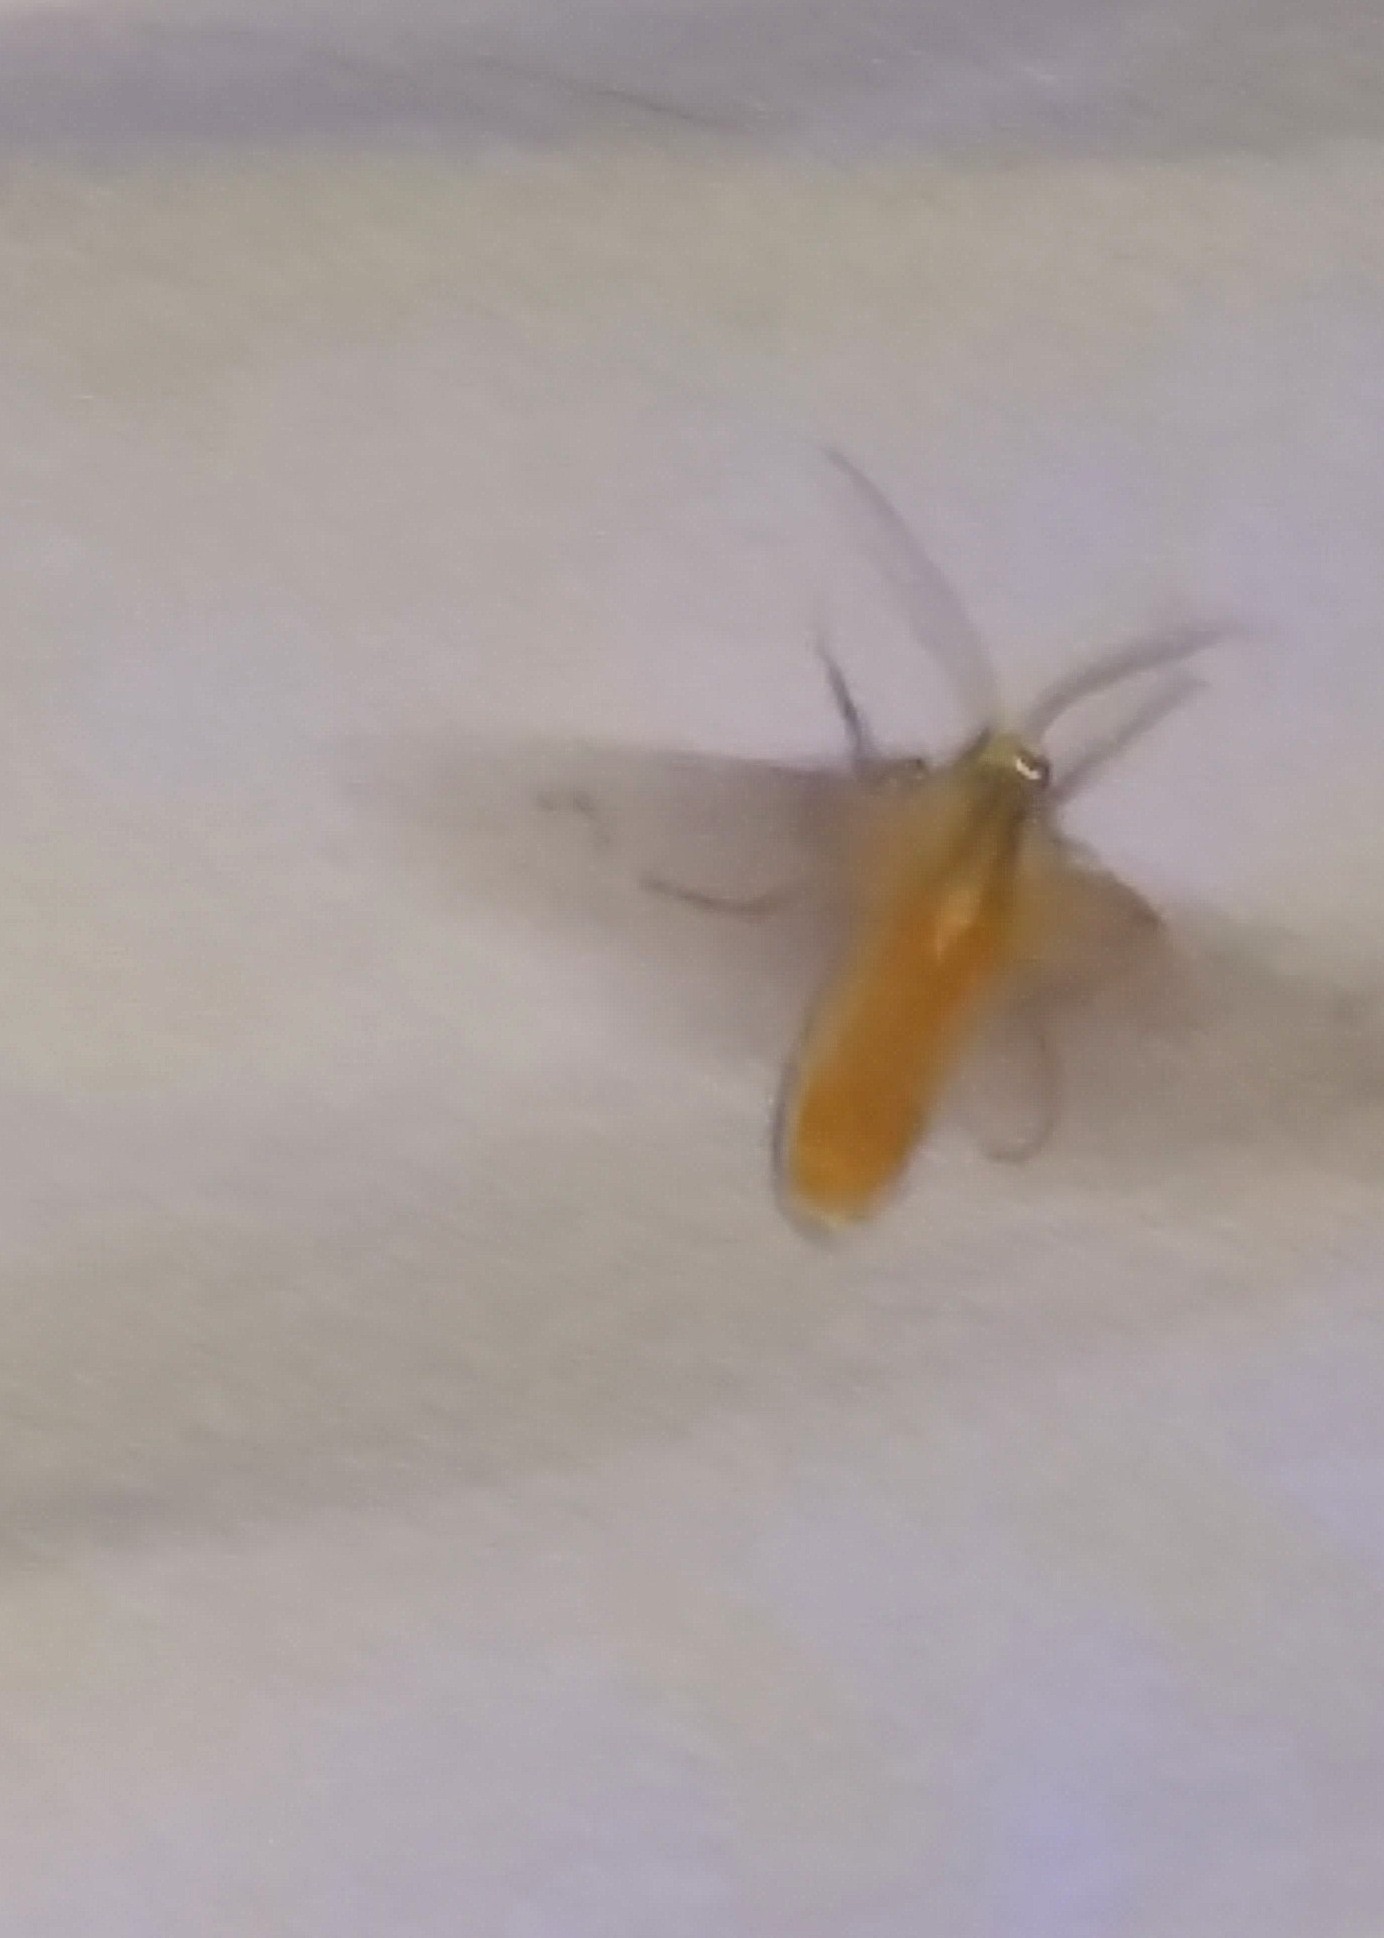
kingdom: Animalia
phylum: Arthropoda
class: Insecta
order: Lepidoptera
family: Erebidae
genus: Halysidota
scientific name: Halysidota
